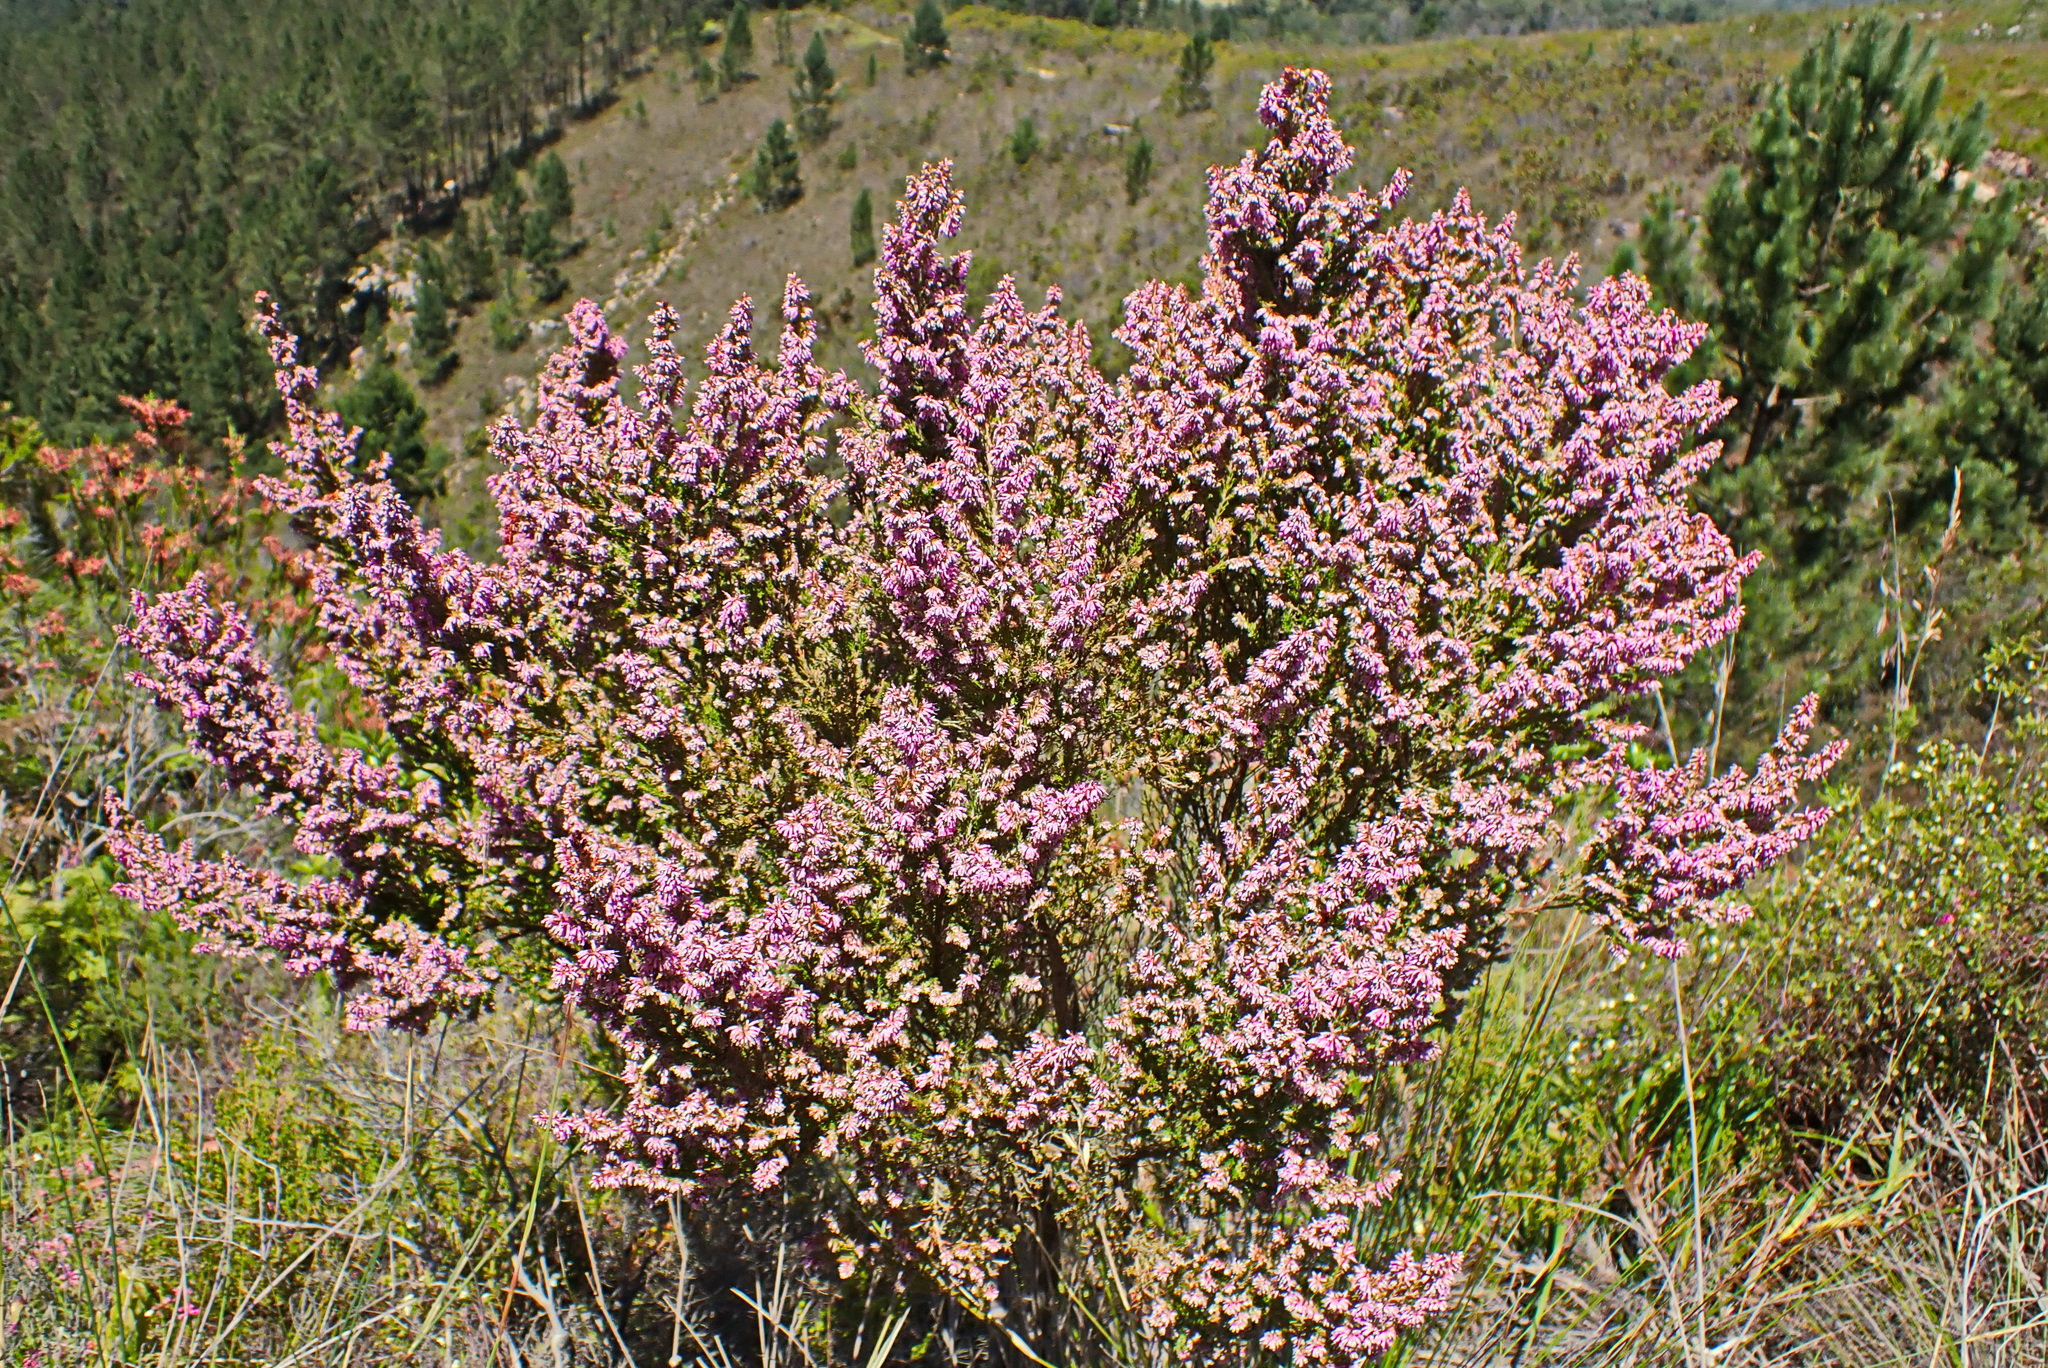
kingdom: Plantae
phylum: Tracheophyta
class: Magnoliopsida
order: Ericales
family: Ericaceae
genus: Erica
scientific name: Erica uberiflora
